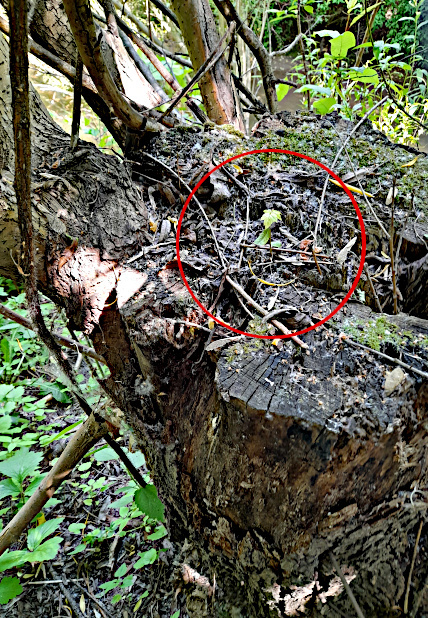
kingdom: Plantae
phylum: Tracheophyta
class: Magnoliopsida
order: Sapindales
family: Sapindaceae
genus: Acer
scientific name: Acer negundo
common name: Ashleaf maple
